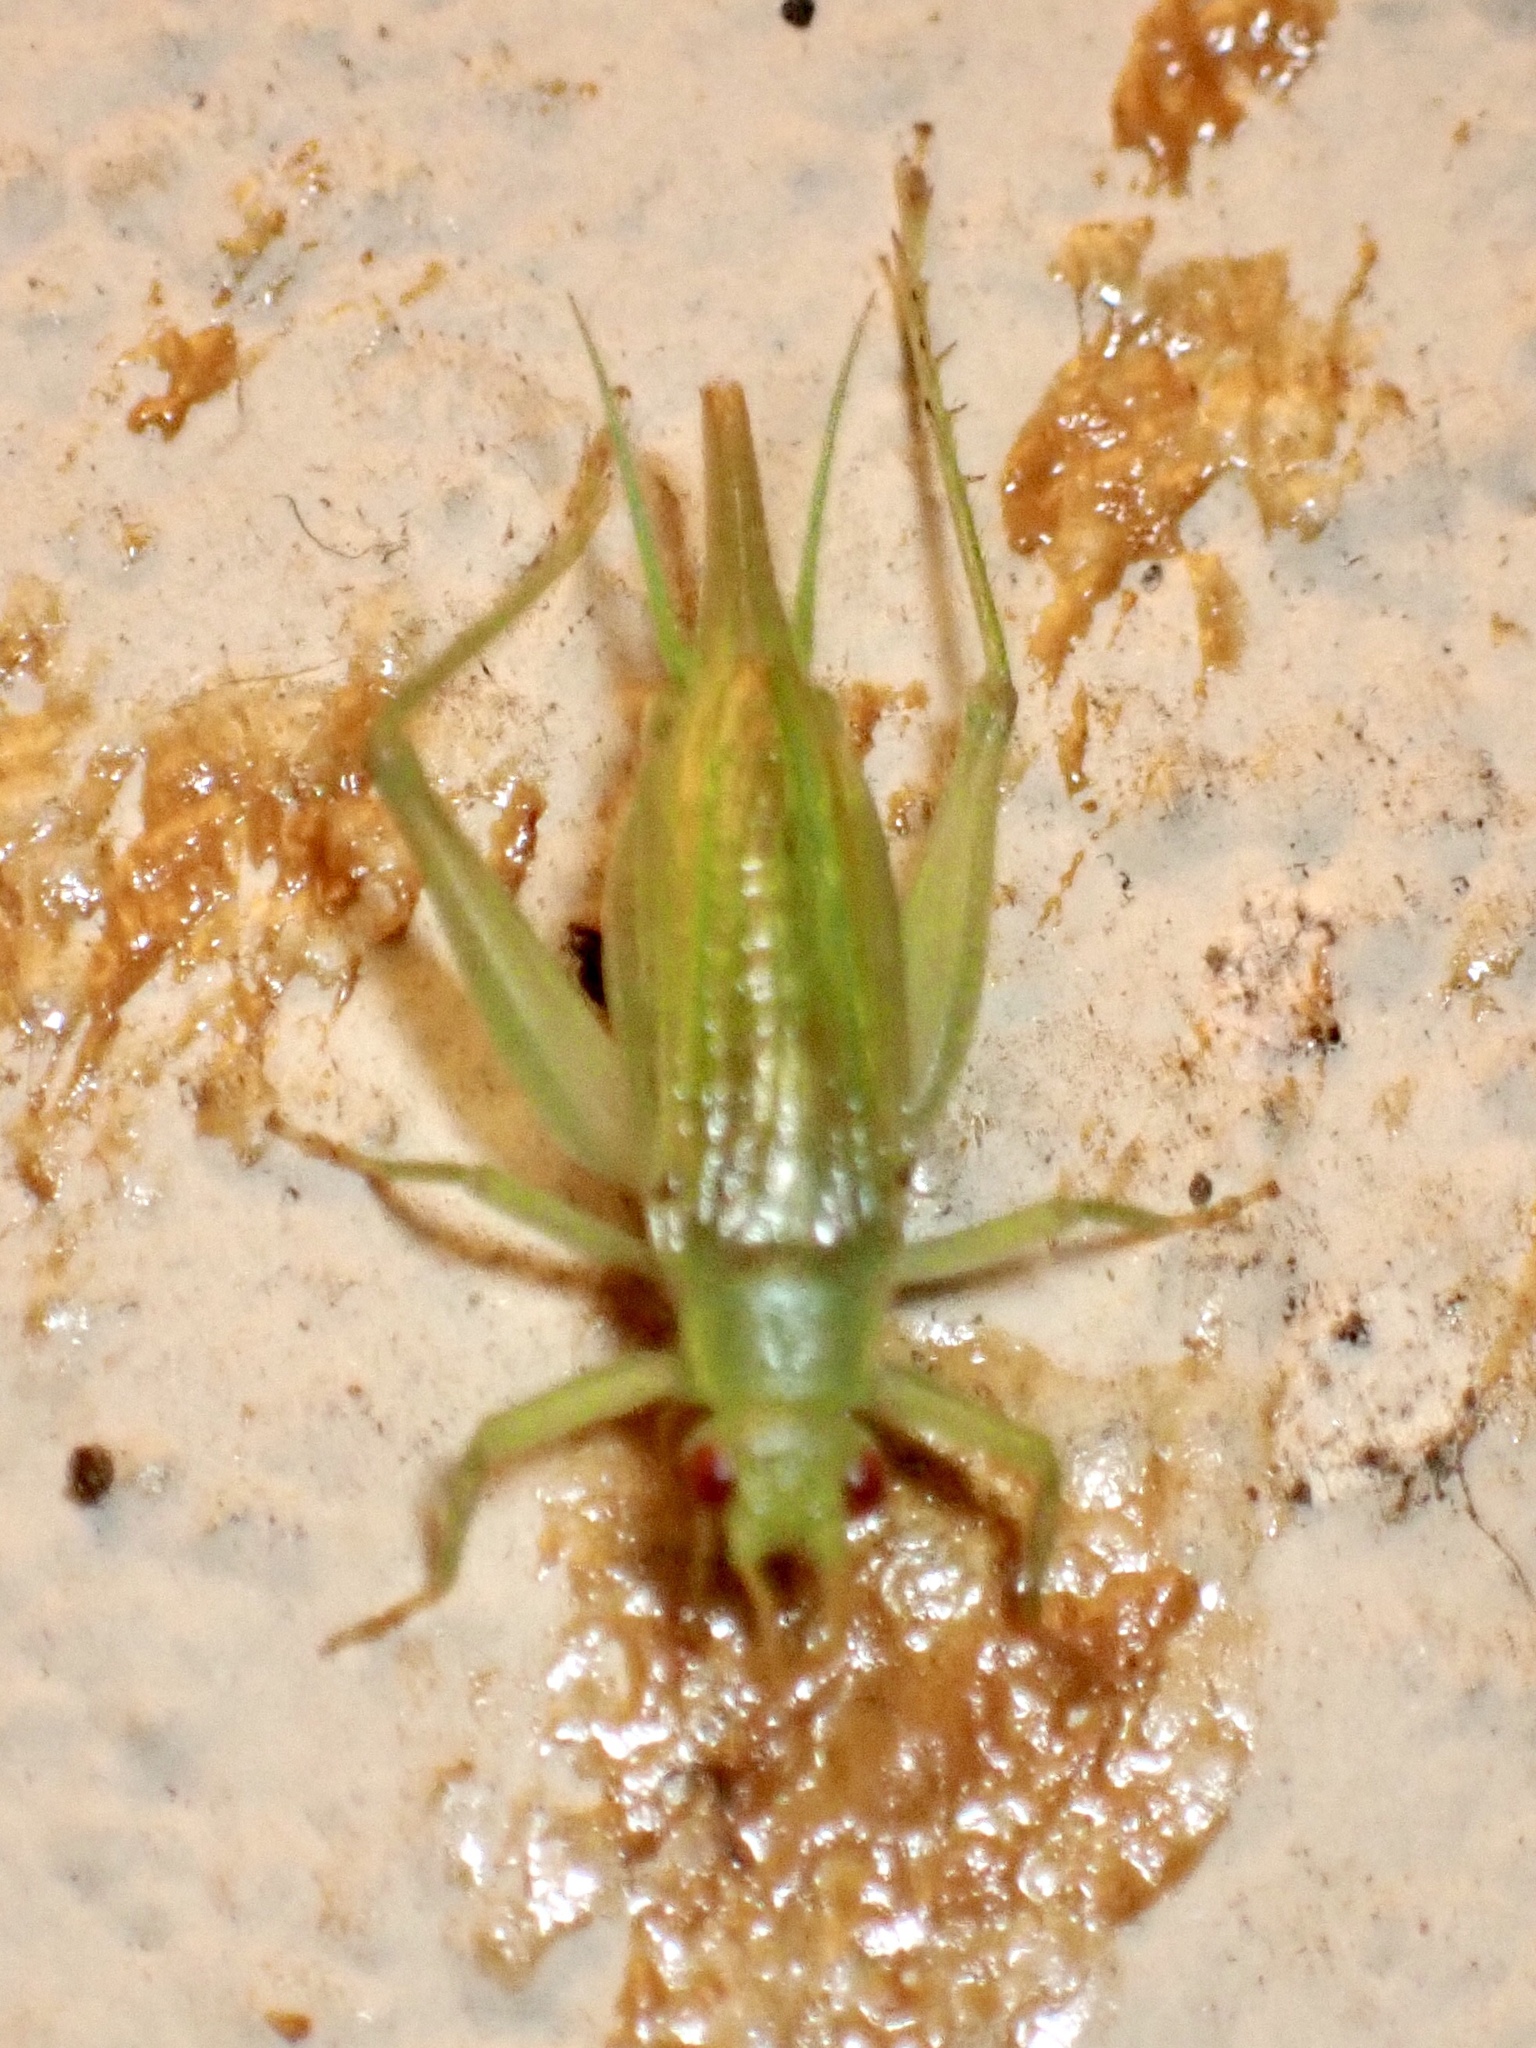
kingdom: Animalia
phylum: Arthropoda
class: Insecta
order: Orthoptera
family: Trigonidiidae
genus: Cyrtoxipha
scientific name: Cyrtoxipha columbiana
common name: Columbian trig
